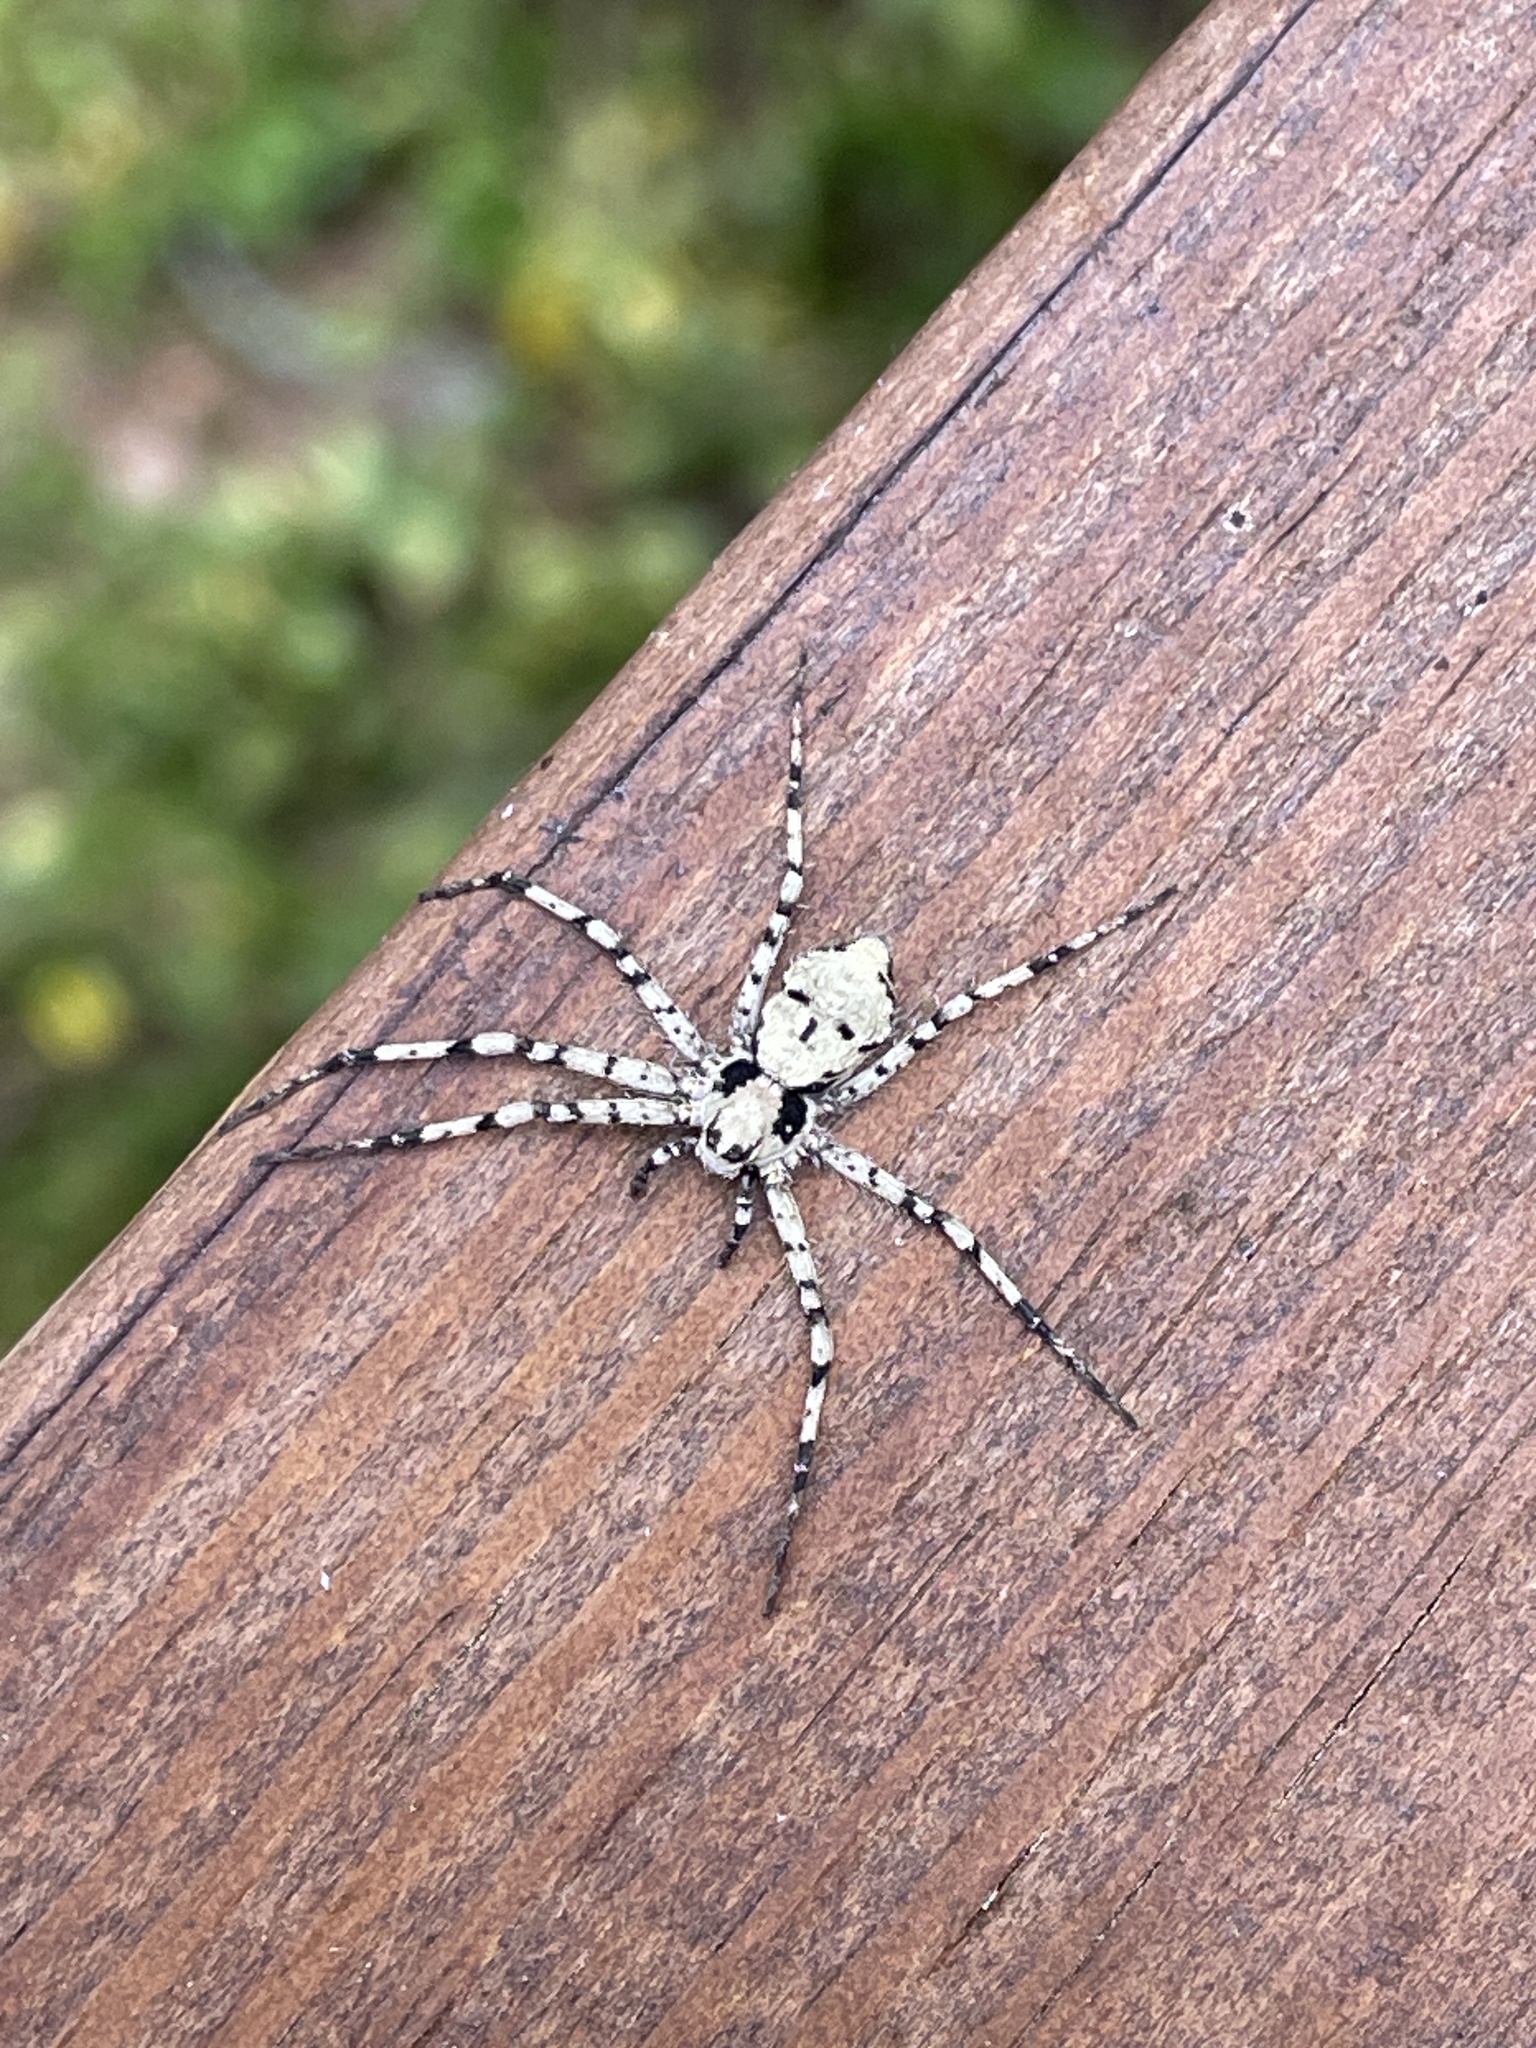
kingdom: Animalia
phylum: Arthropoda
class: Arachnida
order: Araneae
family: Philodromidae
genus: Philodromus
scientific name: Philodromus margaritatus
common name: Lichen running-spider
